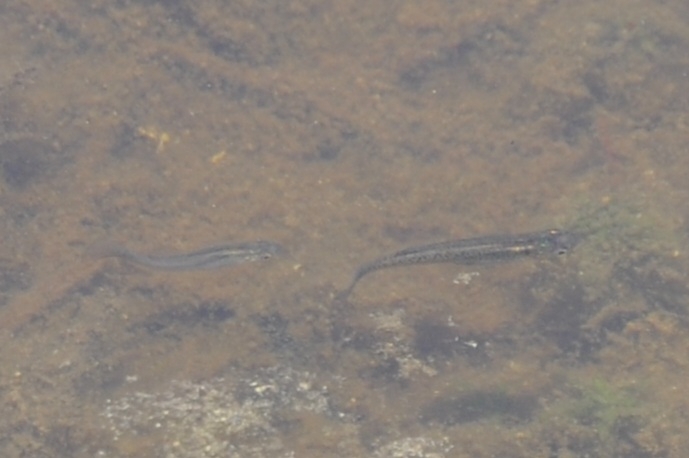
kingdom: Animalia
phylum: Chordata
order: Cyprinodontiformes
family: Poeciliidae
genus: Gambusia
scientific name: Gambusia holbrooki
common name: Eastern mosquitofish
